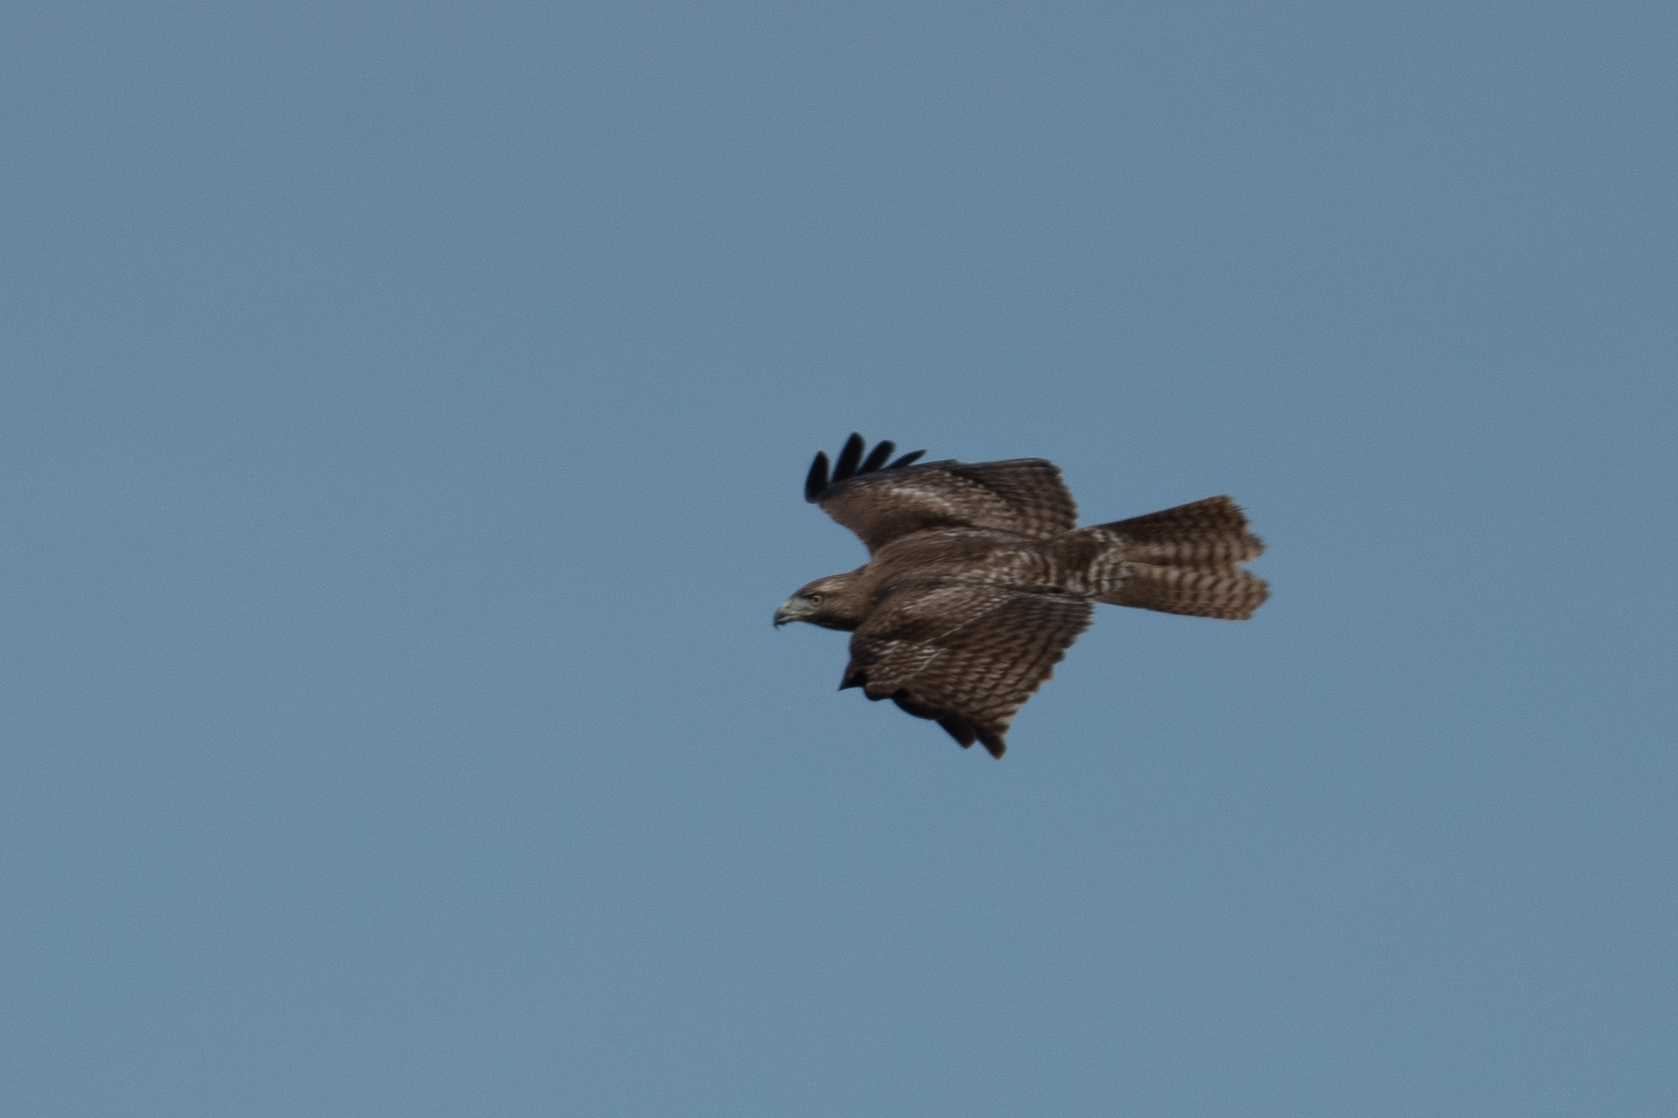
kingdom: Animalia
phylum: Chordata
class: Aves
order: Accipitriformes
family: Accipitridae
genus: Buteo
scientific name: Buteo jamaicensis
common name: Red-tailed hawk
